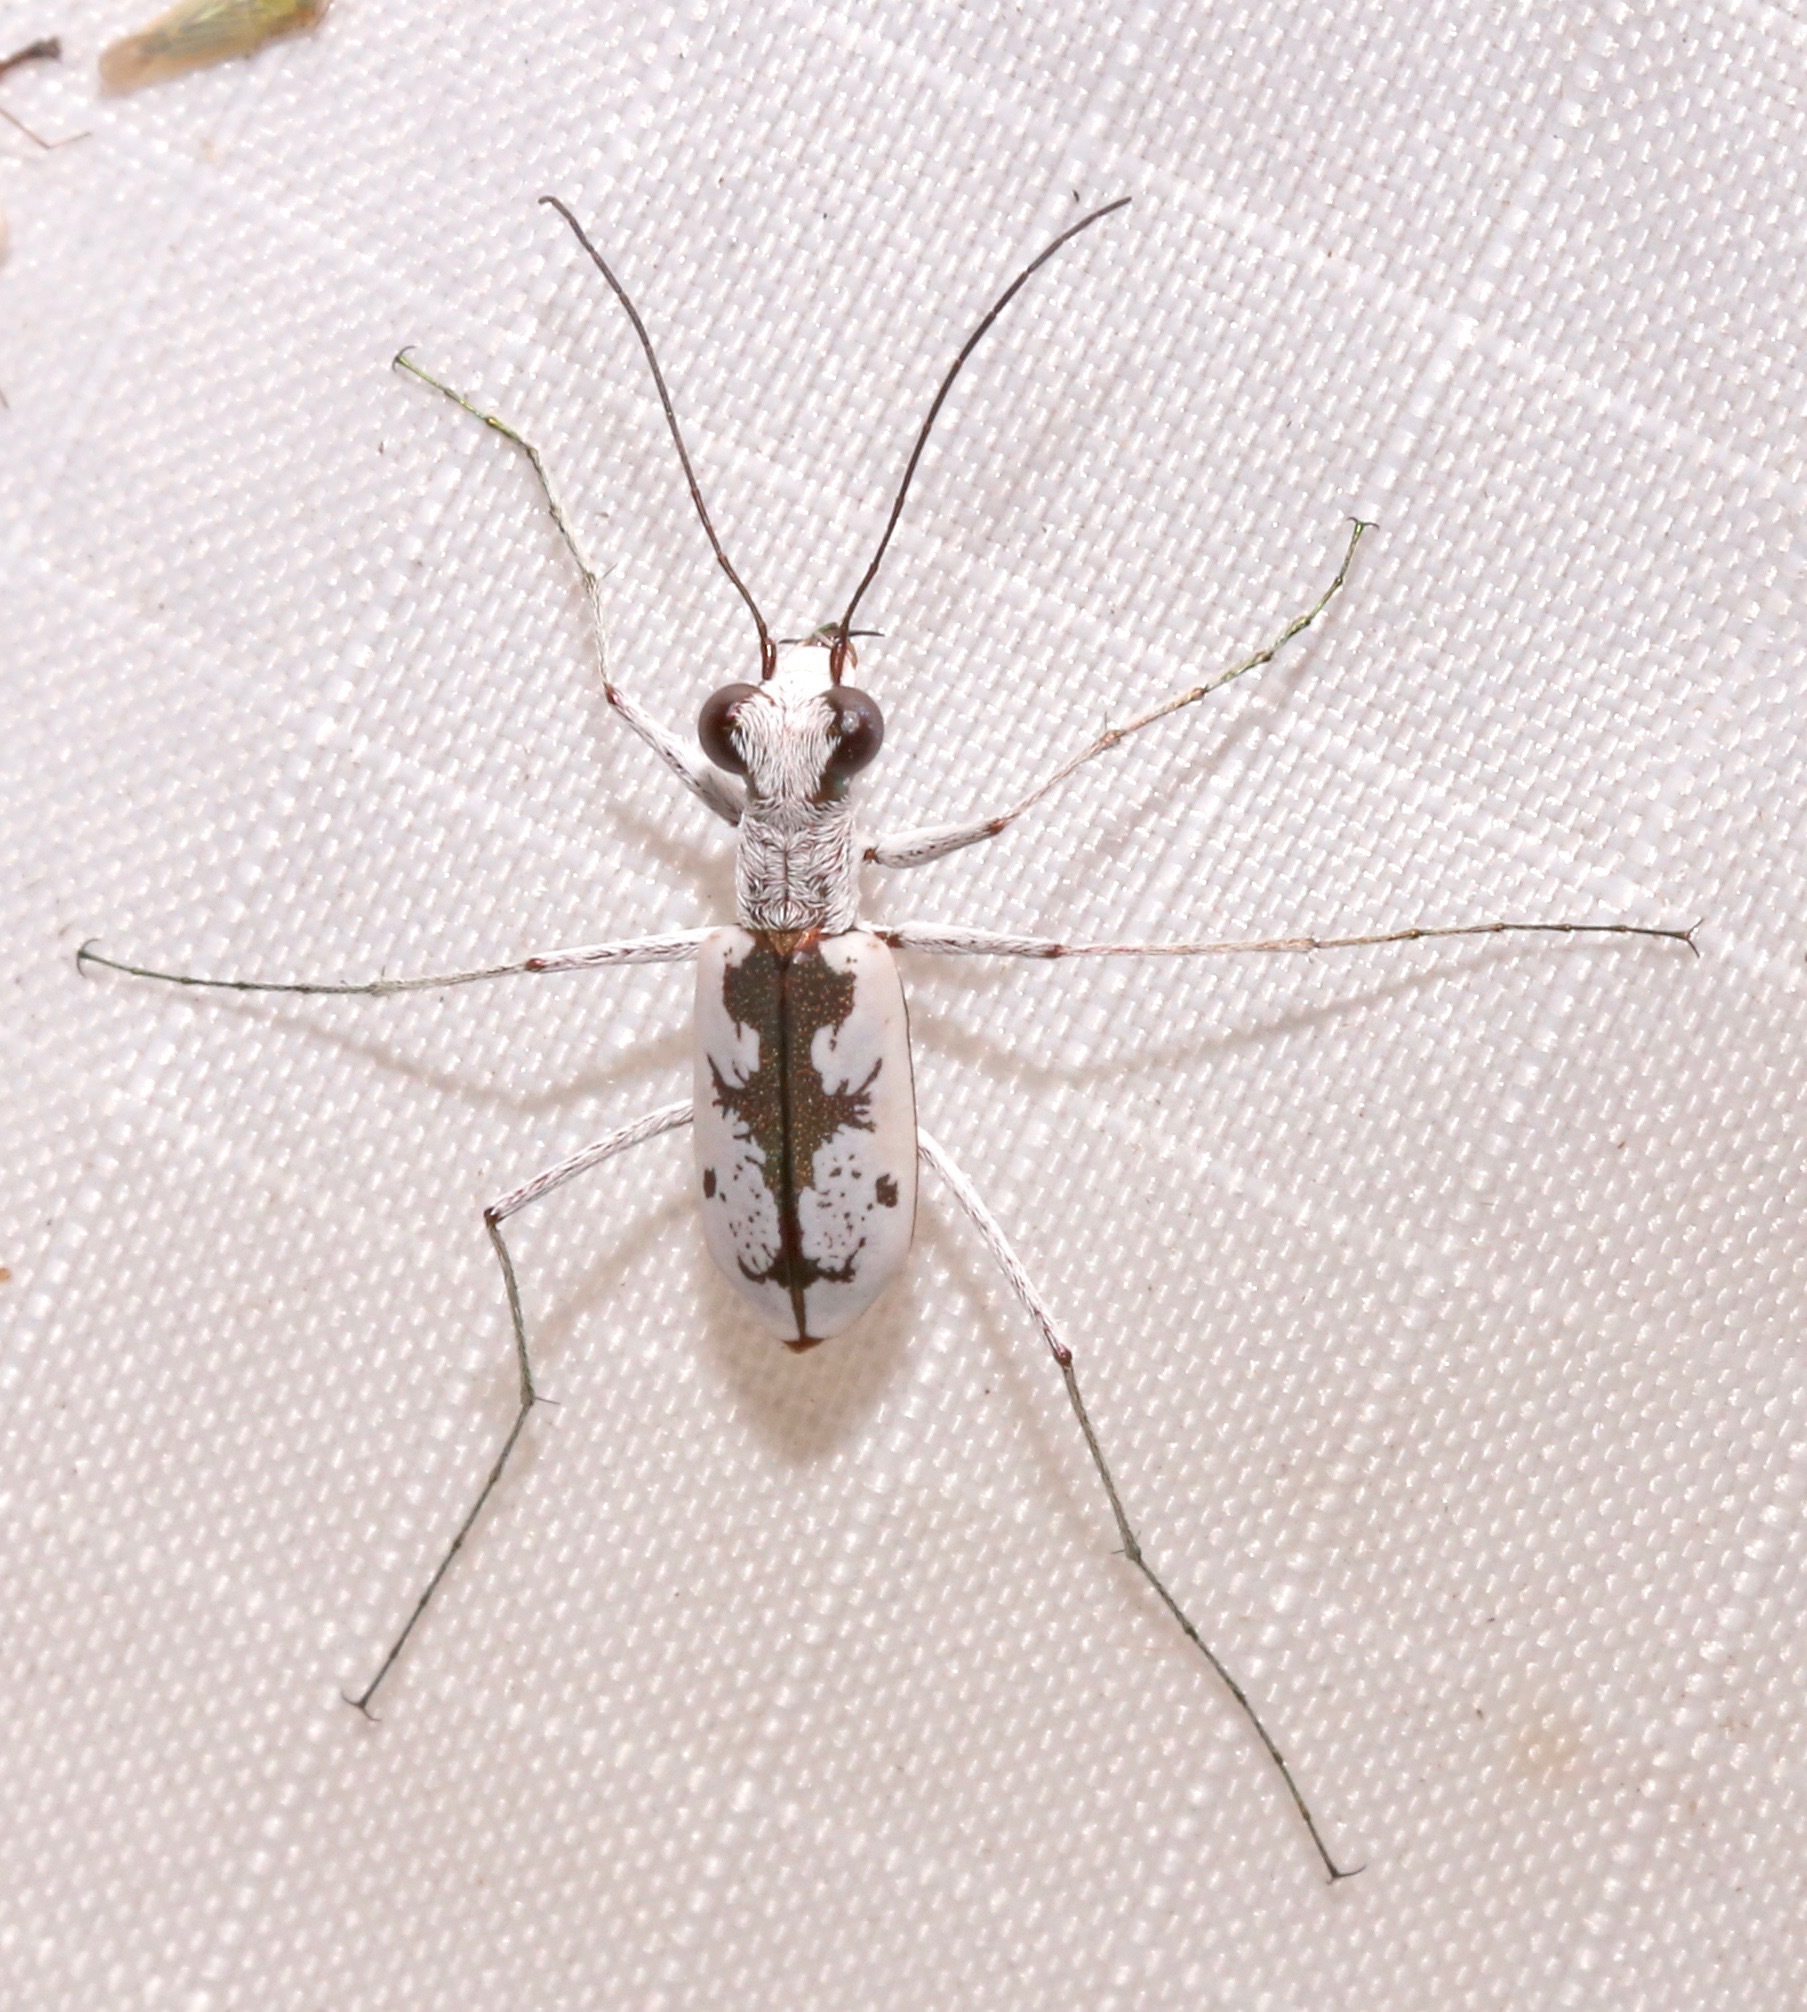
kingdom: Animalia
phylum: Arthropoda
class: Insecta
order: Coleoptera
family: Carabidae
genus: Ellipsoptera
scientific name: Ellipsoptera hirtilabris
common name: Moustached tiger beetle
